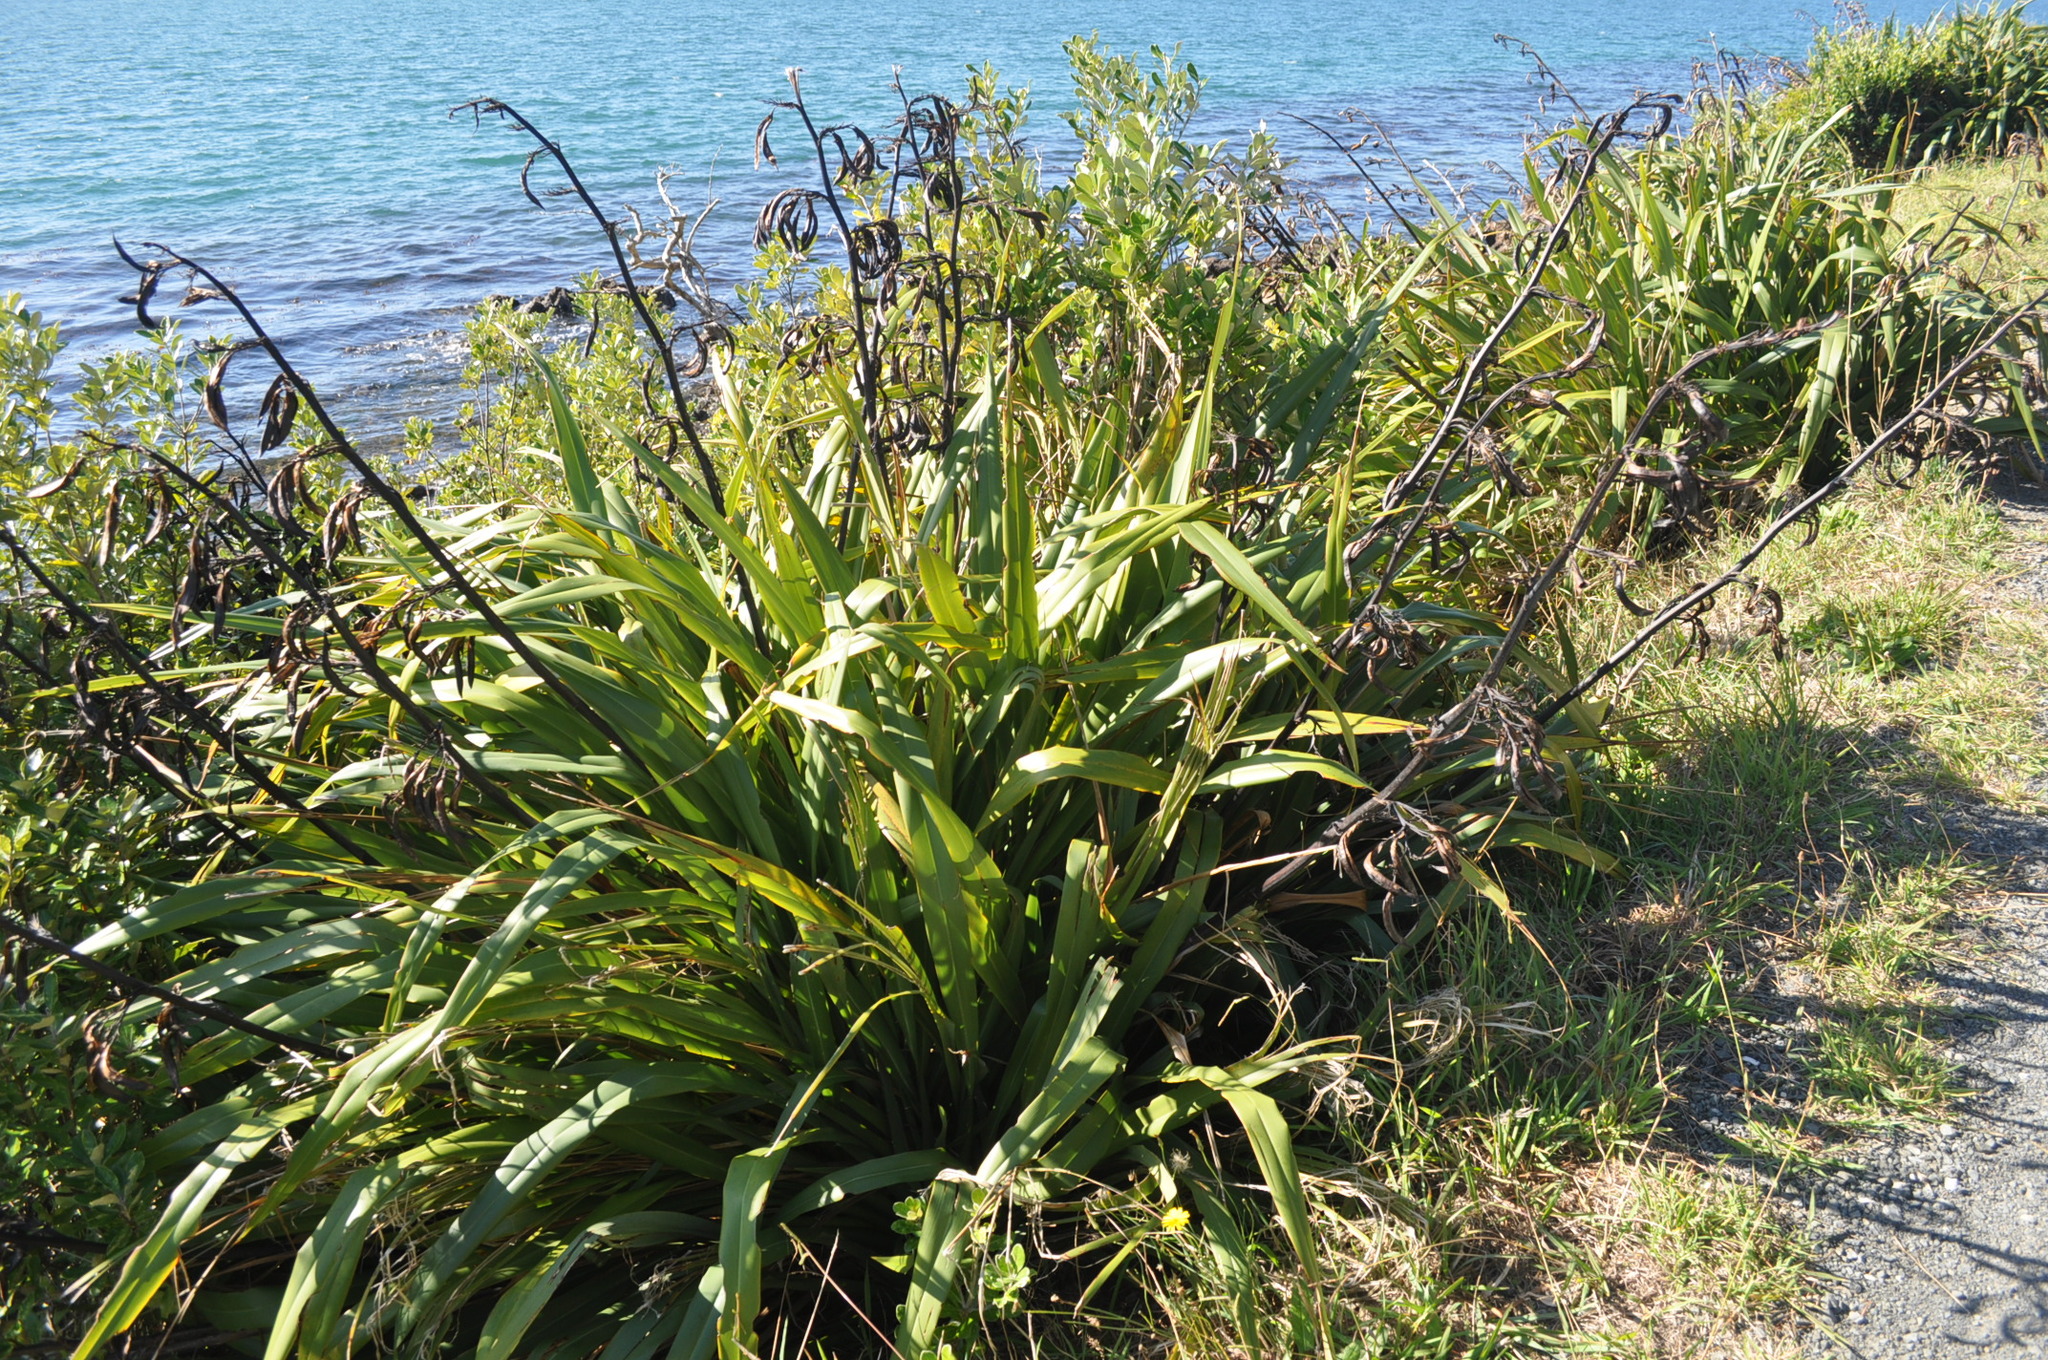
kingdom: Plantae
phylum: Tracheophyta
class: Liliopsida
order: Asparagales
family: Asphodelaceae
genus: Phormium
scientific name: Phormium colensoi
